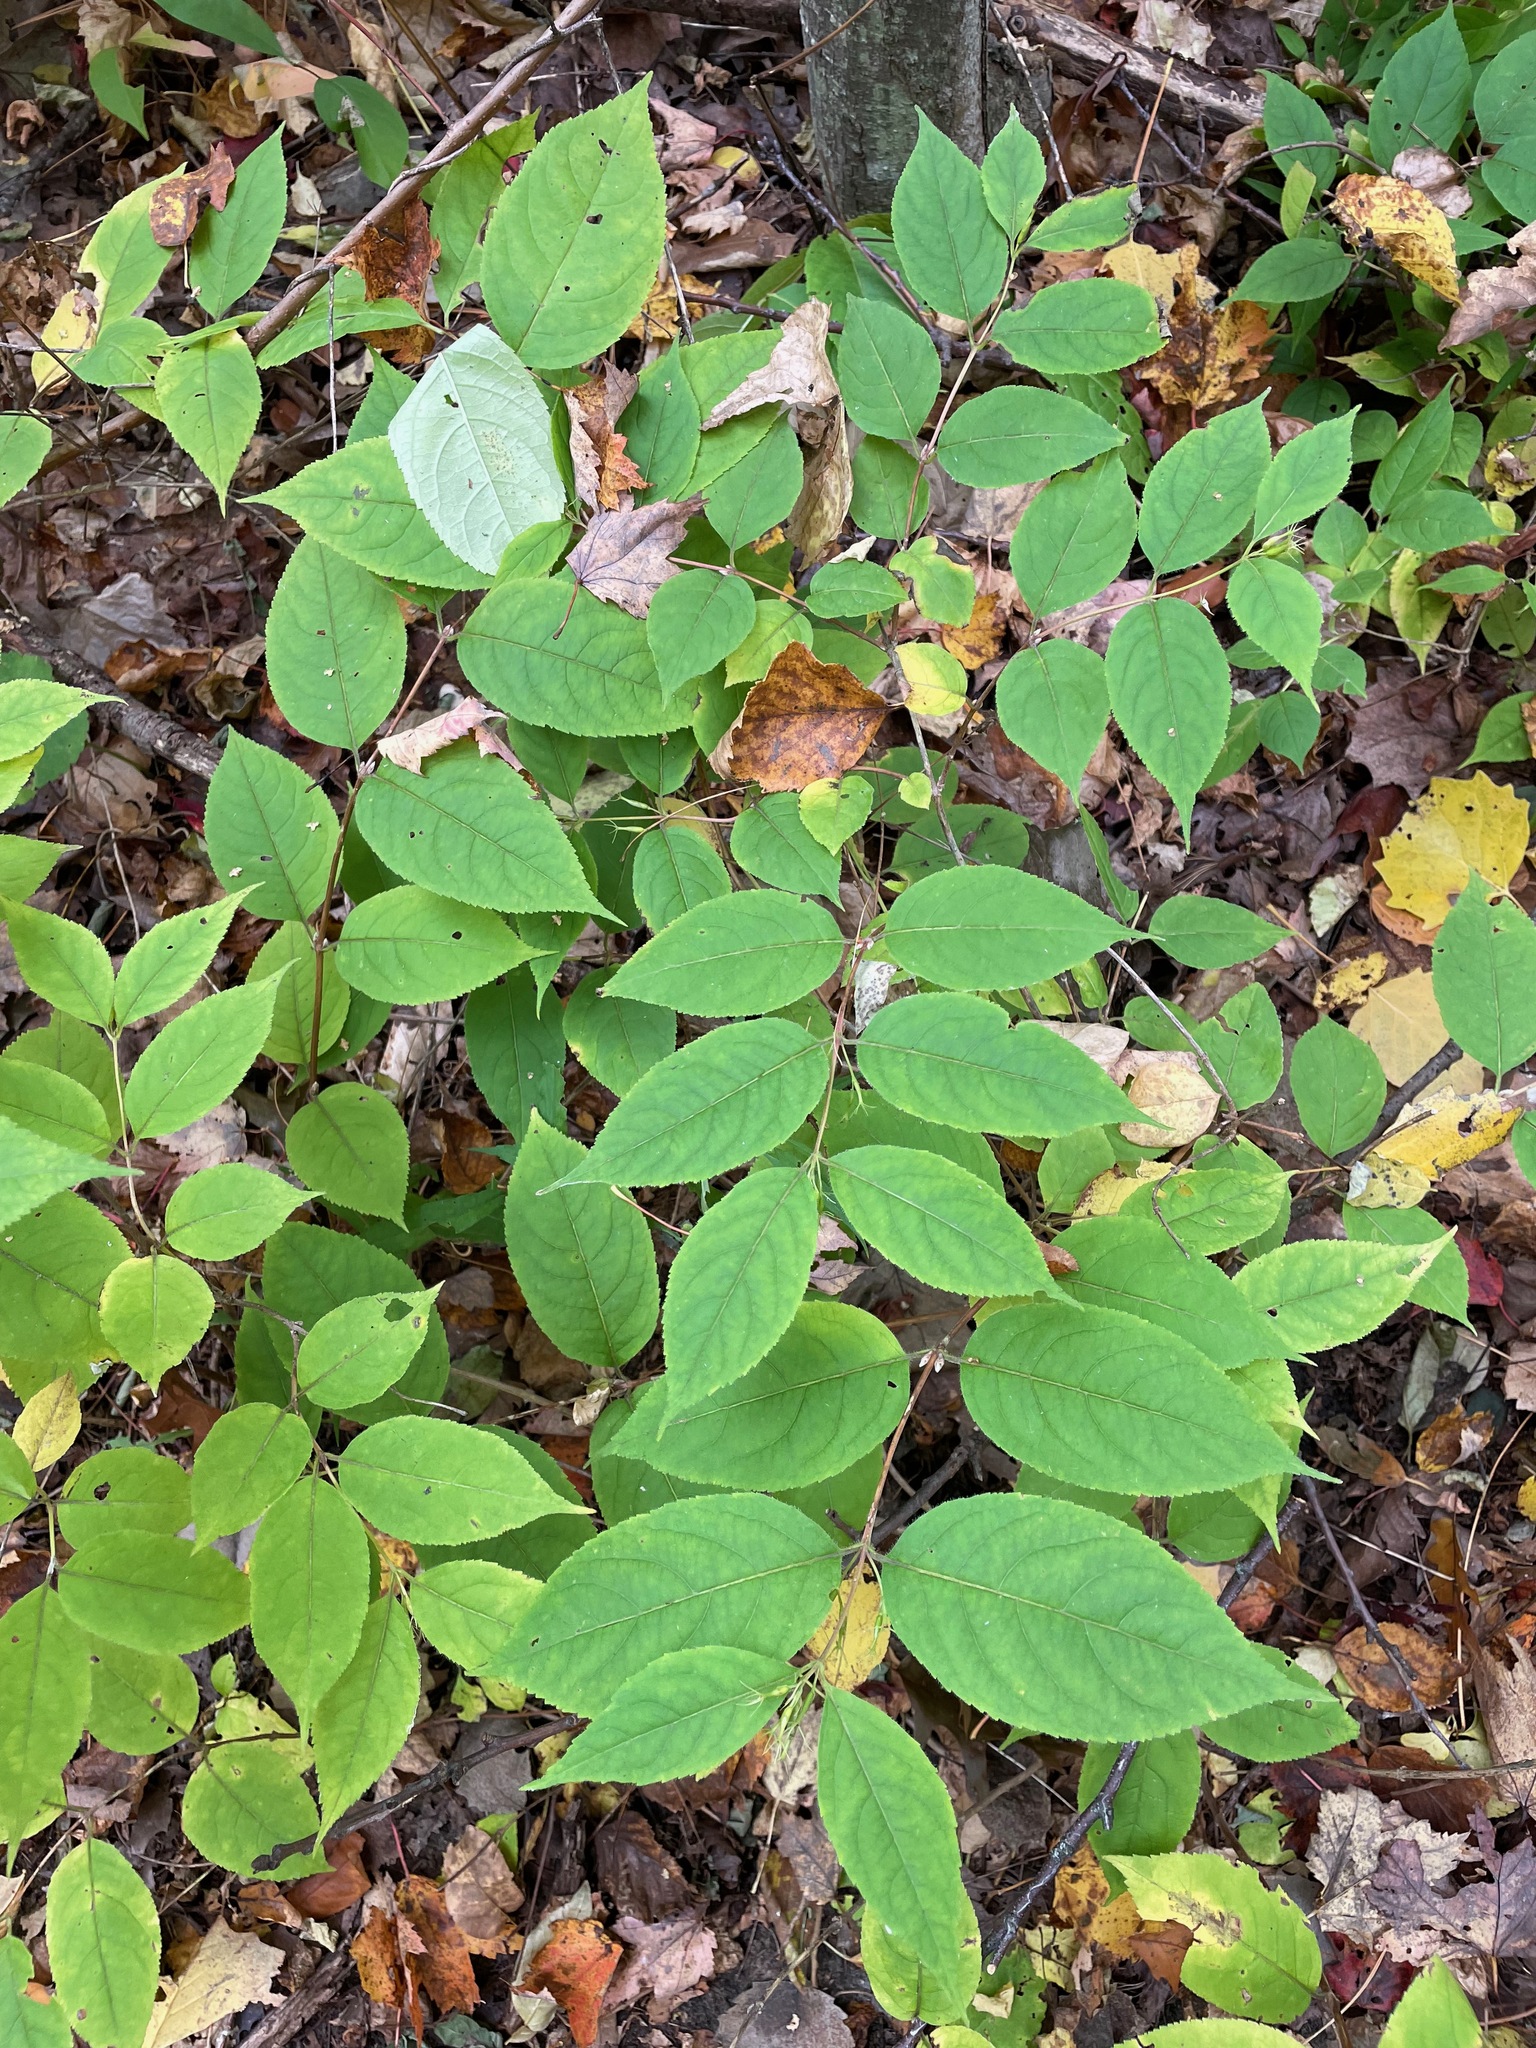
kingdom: Plantae
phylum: Tracheophyta
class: Magnoliopsida
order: Dipsacales
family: Caprifoliaceae
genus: Diervilla
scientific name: Diervilla lonicera
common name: Bush-honeysuckle
